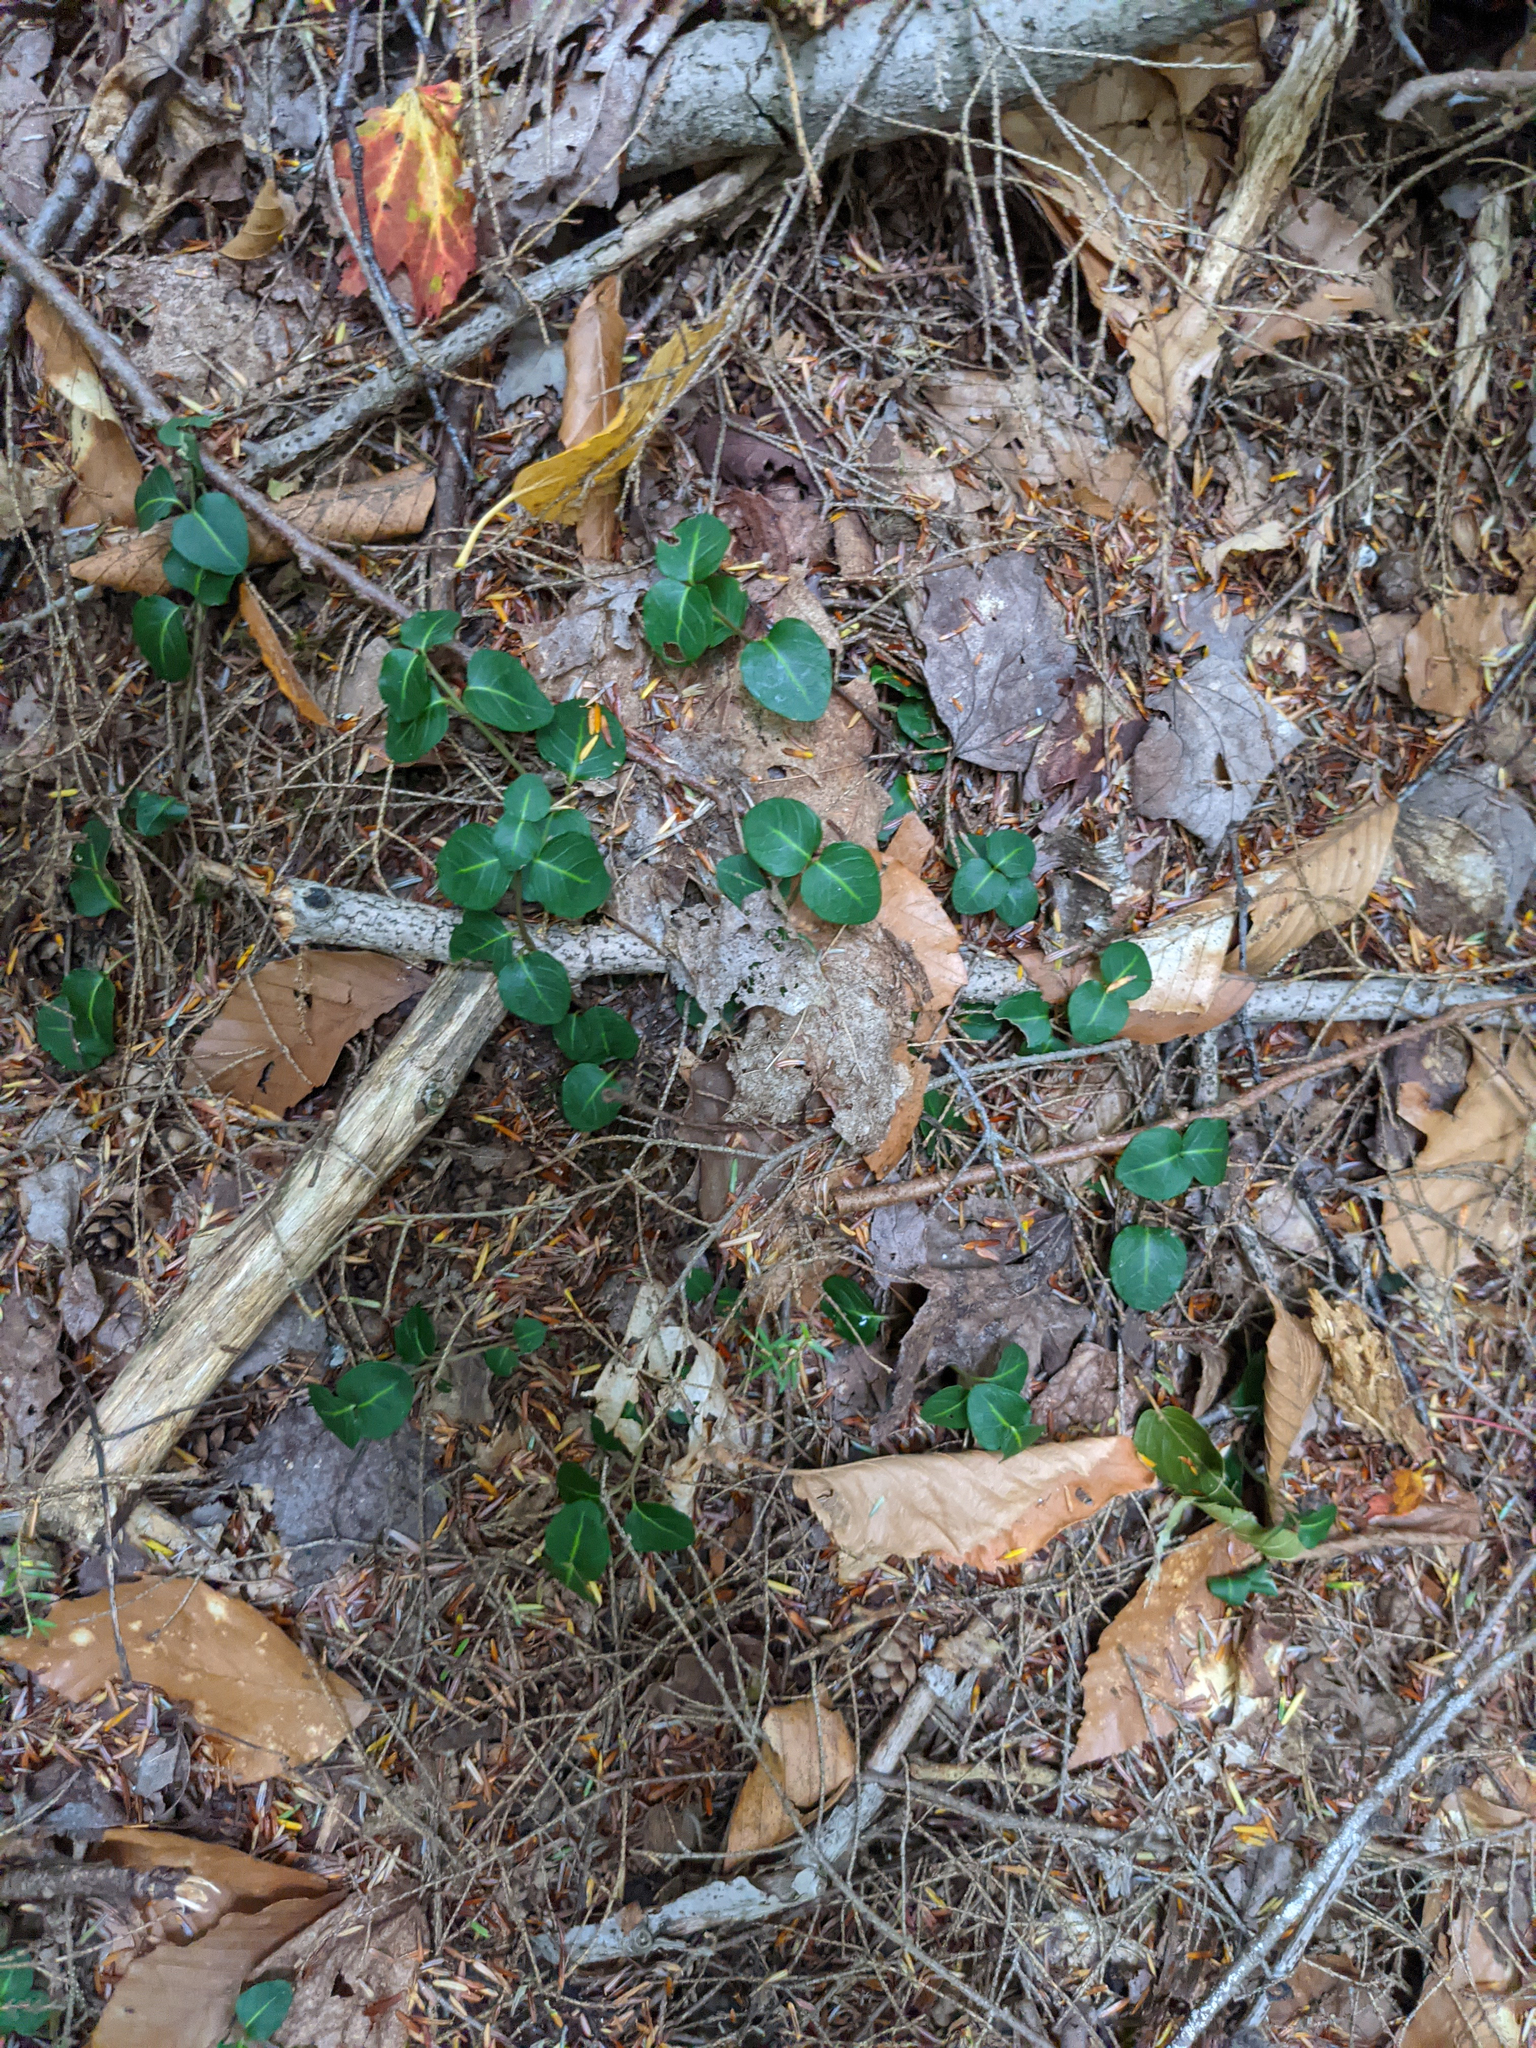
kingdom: Plantae
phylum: Tracheophyta
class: Magnoliopsida
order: Gentianales
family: Rubiaceae
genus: Mitchella
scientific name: Mitchella repens
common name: Partridge-berry
